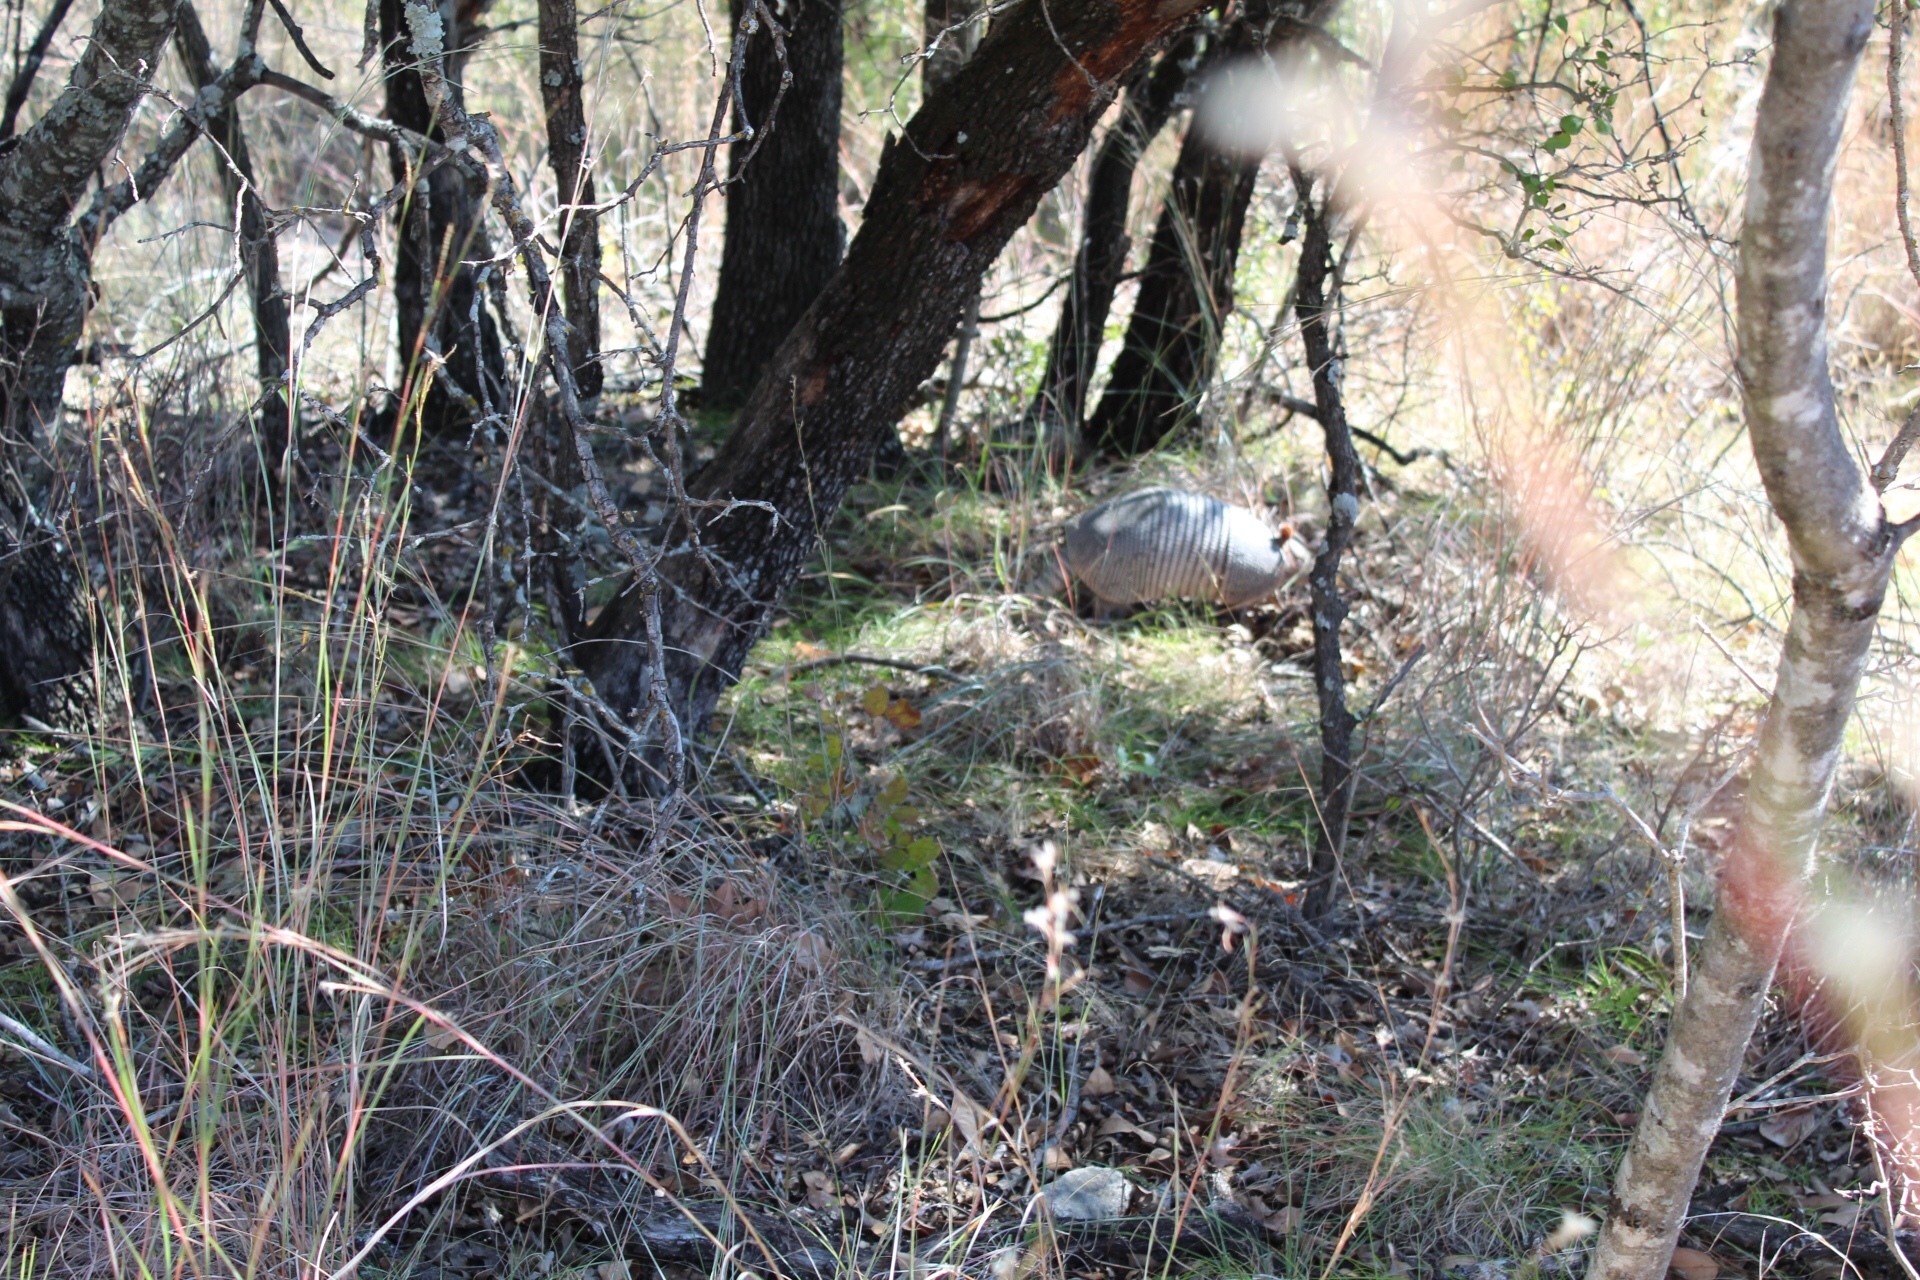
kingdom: Animalia
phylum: Chordata
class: Mammalia
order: Cingulata
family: Dasypodidae
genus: Dasypus
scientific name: Dasypus novemcinctus
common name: Nine-banded armadillo
